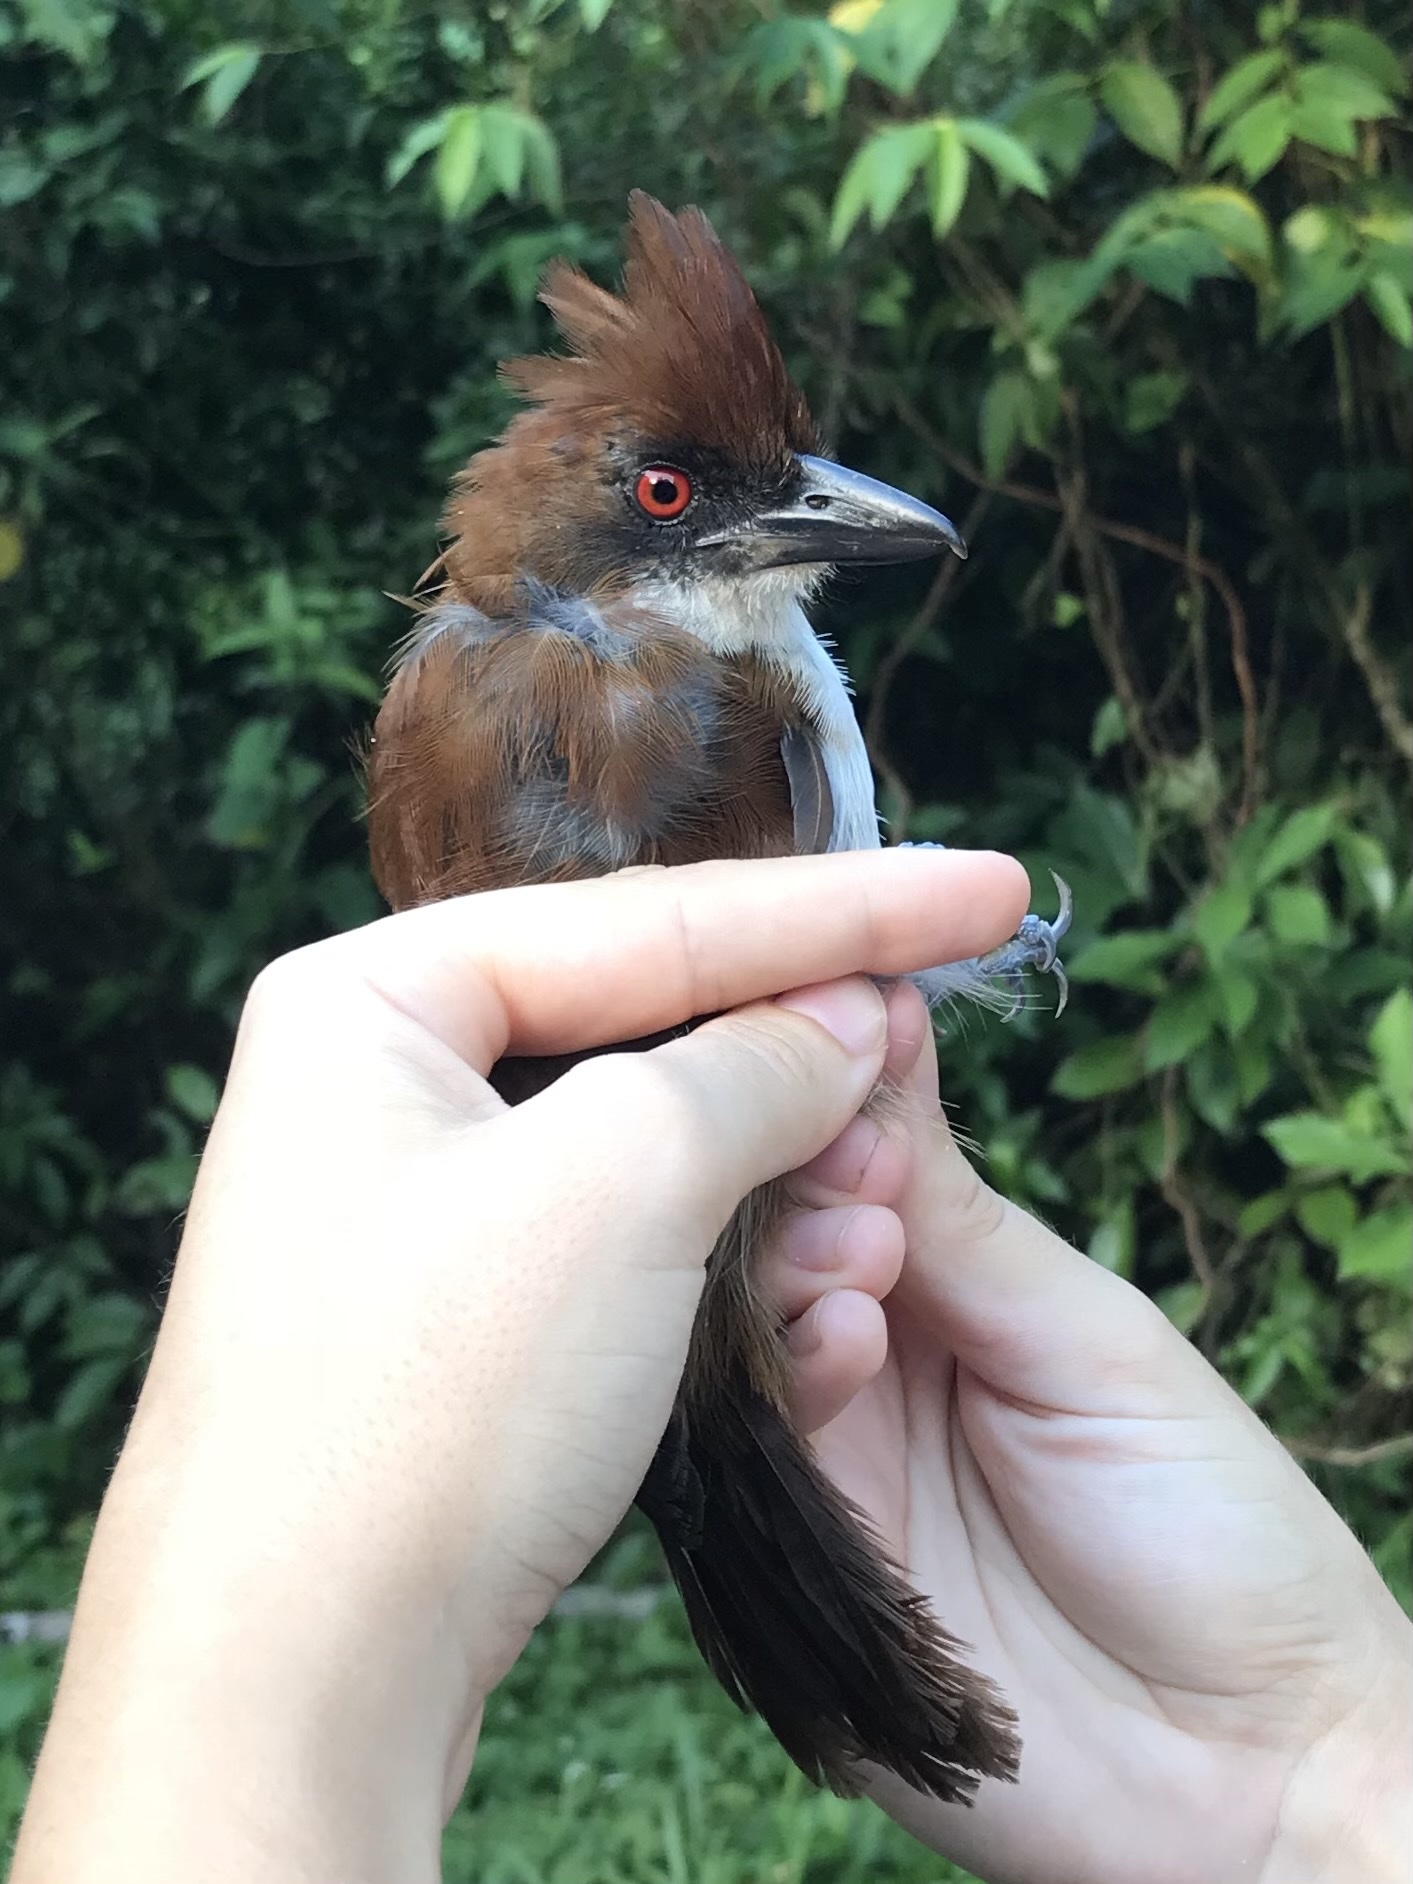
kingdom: Animalia
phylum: Chordata
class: Aves
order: Passeriformes
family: Thamnophilidae
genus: Taraba
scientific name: Taraba major
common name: Great antshrike
